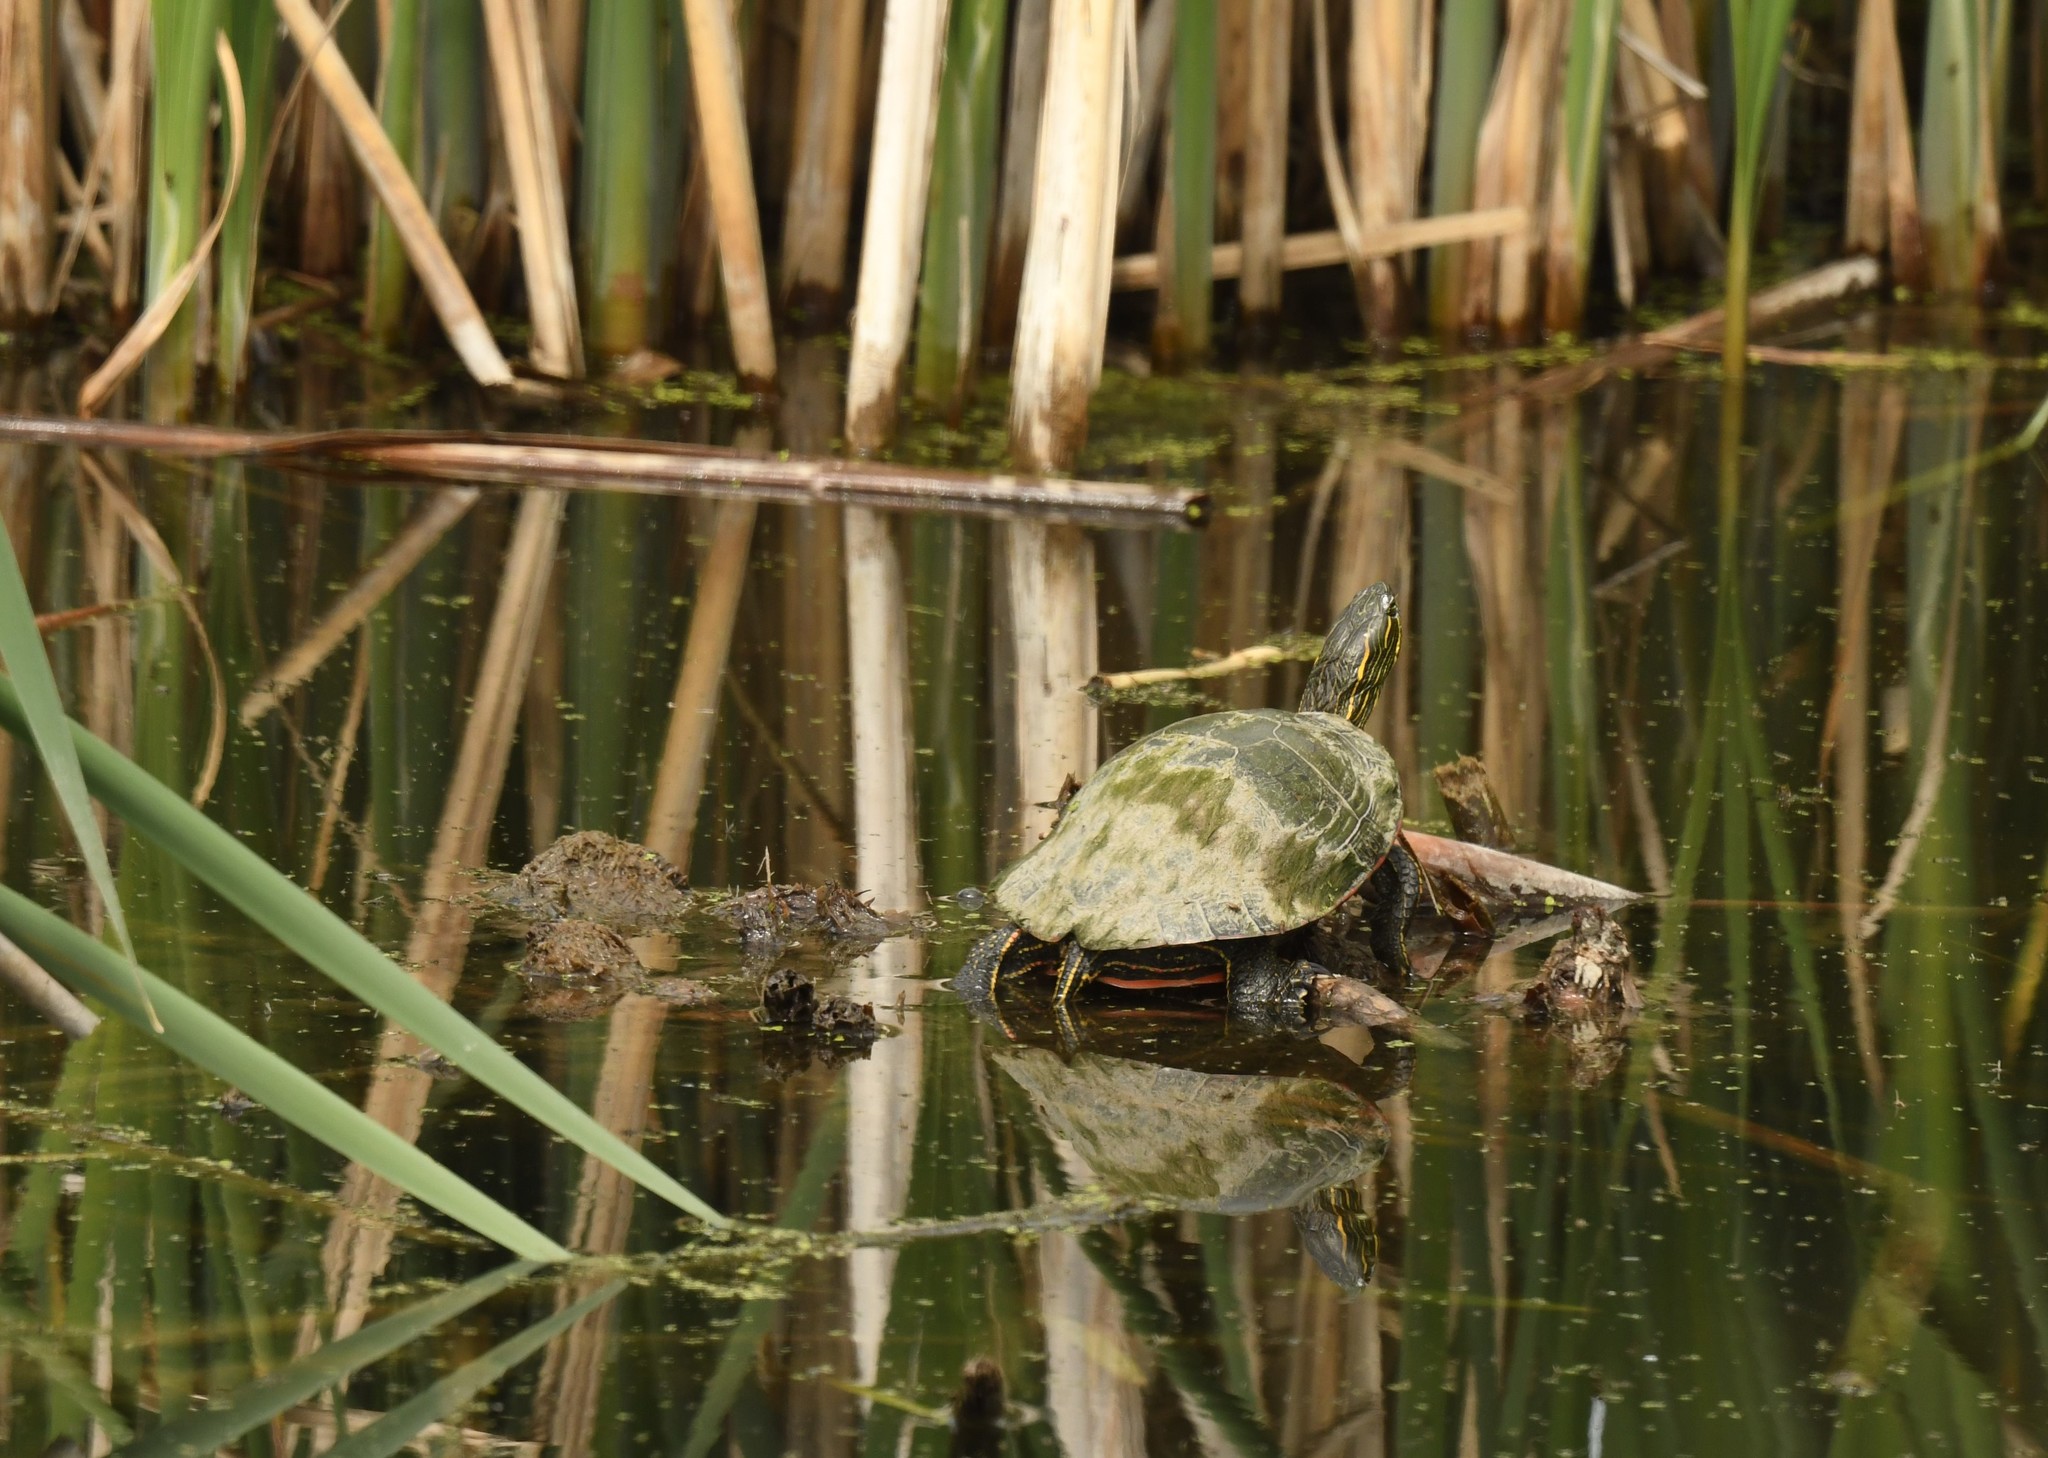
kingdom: Animalia
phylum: Chordata
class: Testudines
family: Emydidae
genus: Trachemys
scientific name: Trachemys scripta
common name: Slider
